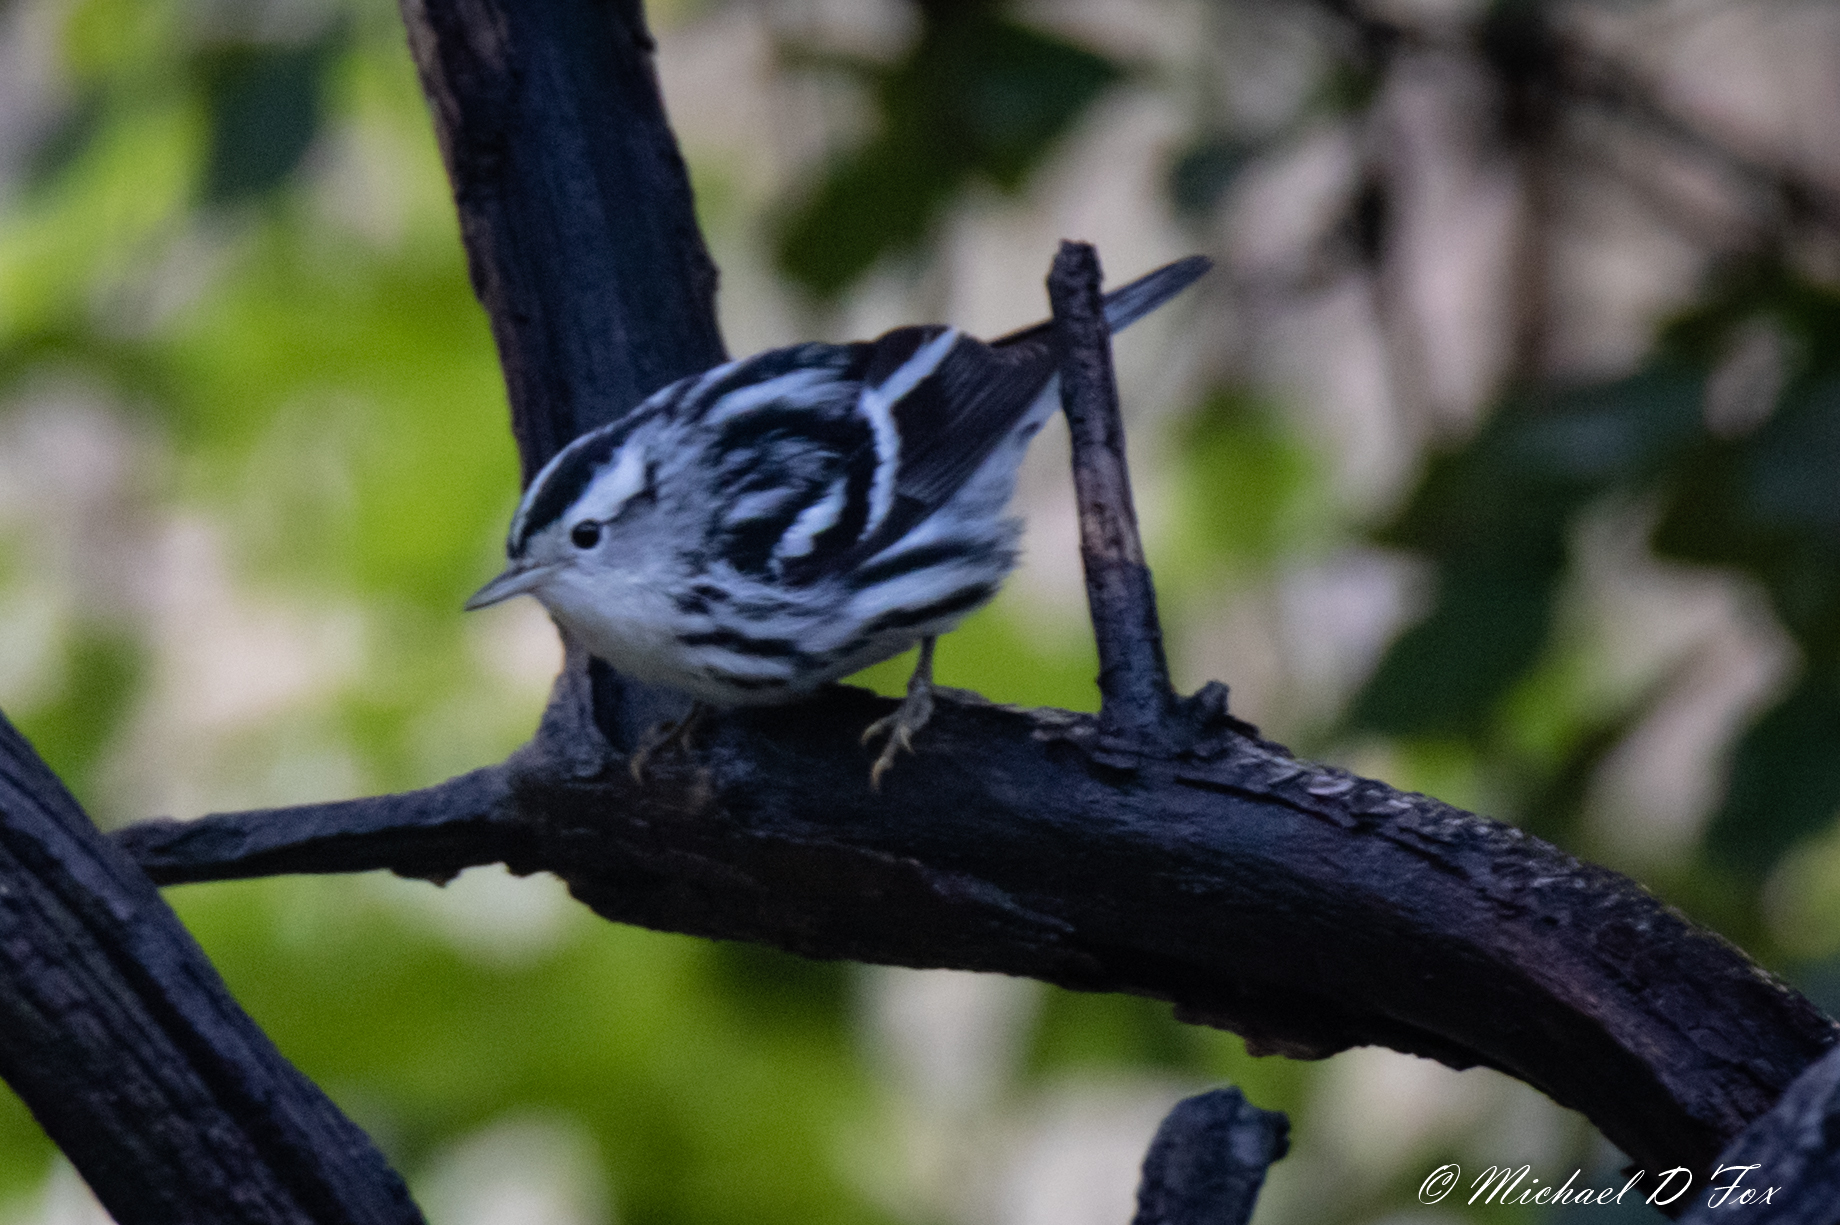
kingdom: Animalia
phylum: Chordata
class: Aves
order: Passeriformes
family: Parulidae
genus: Mniotilta
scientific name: Mniotilta varia
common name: Black-and-white warbler
